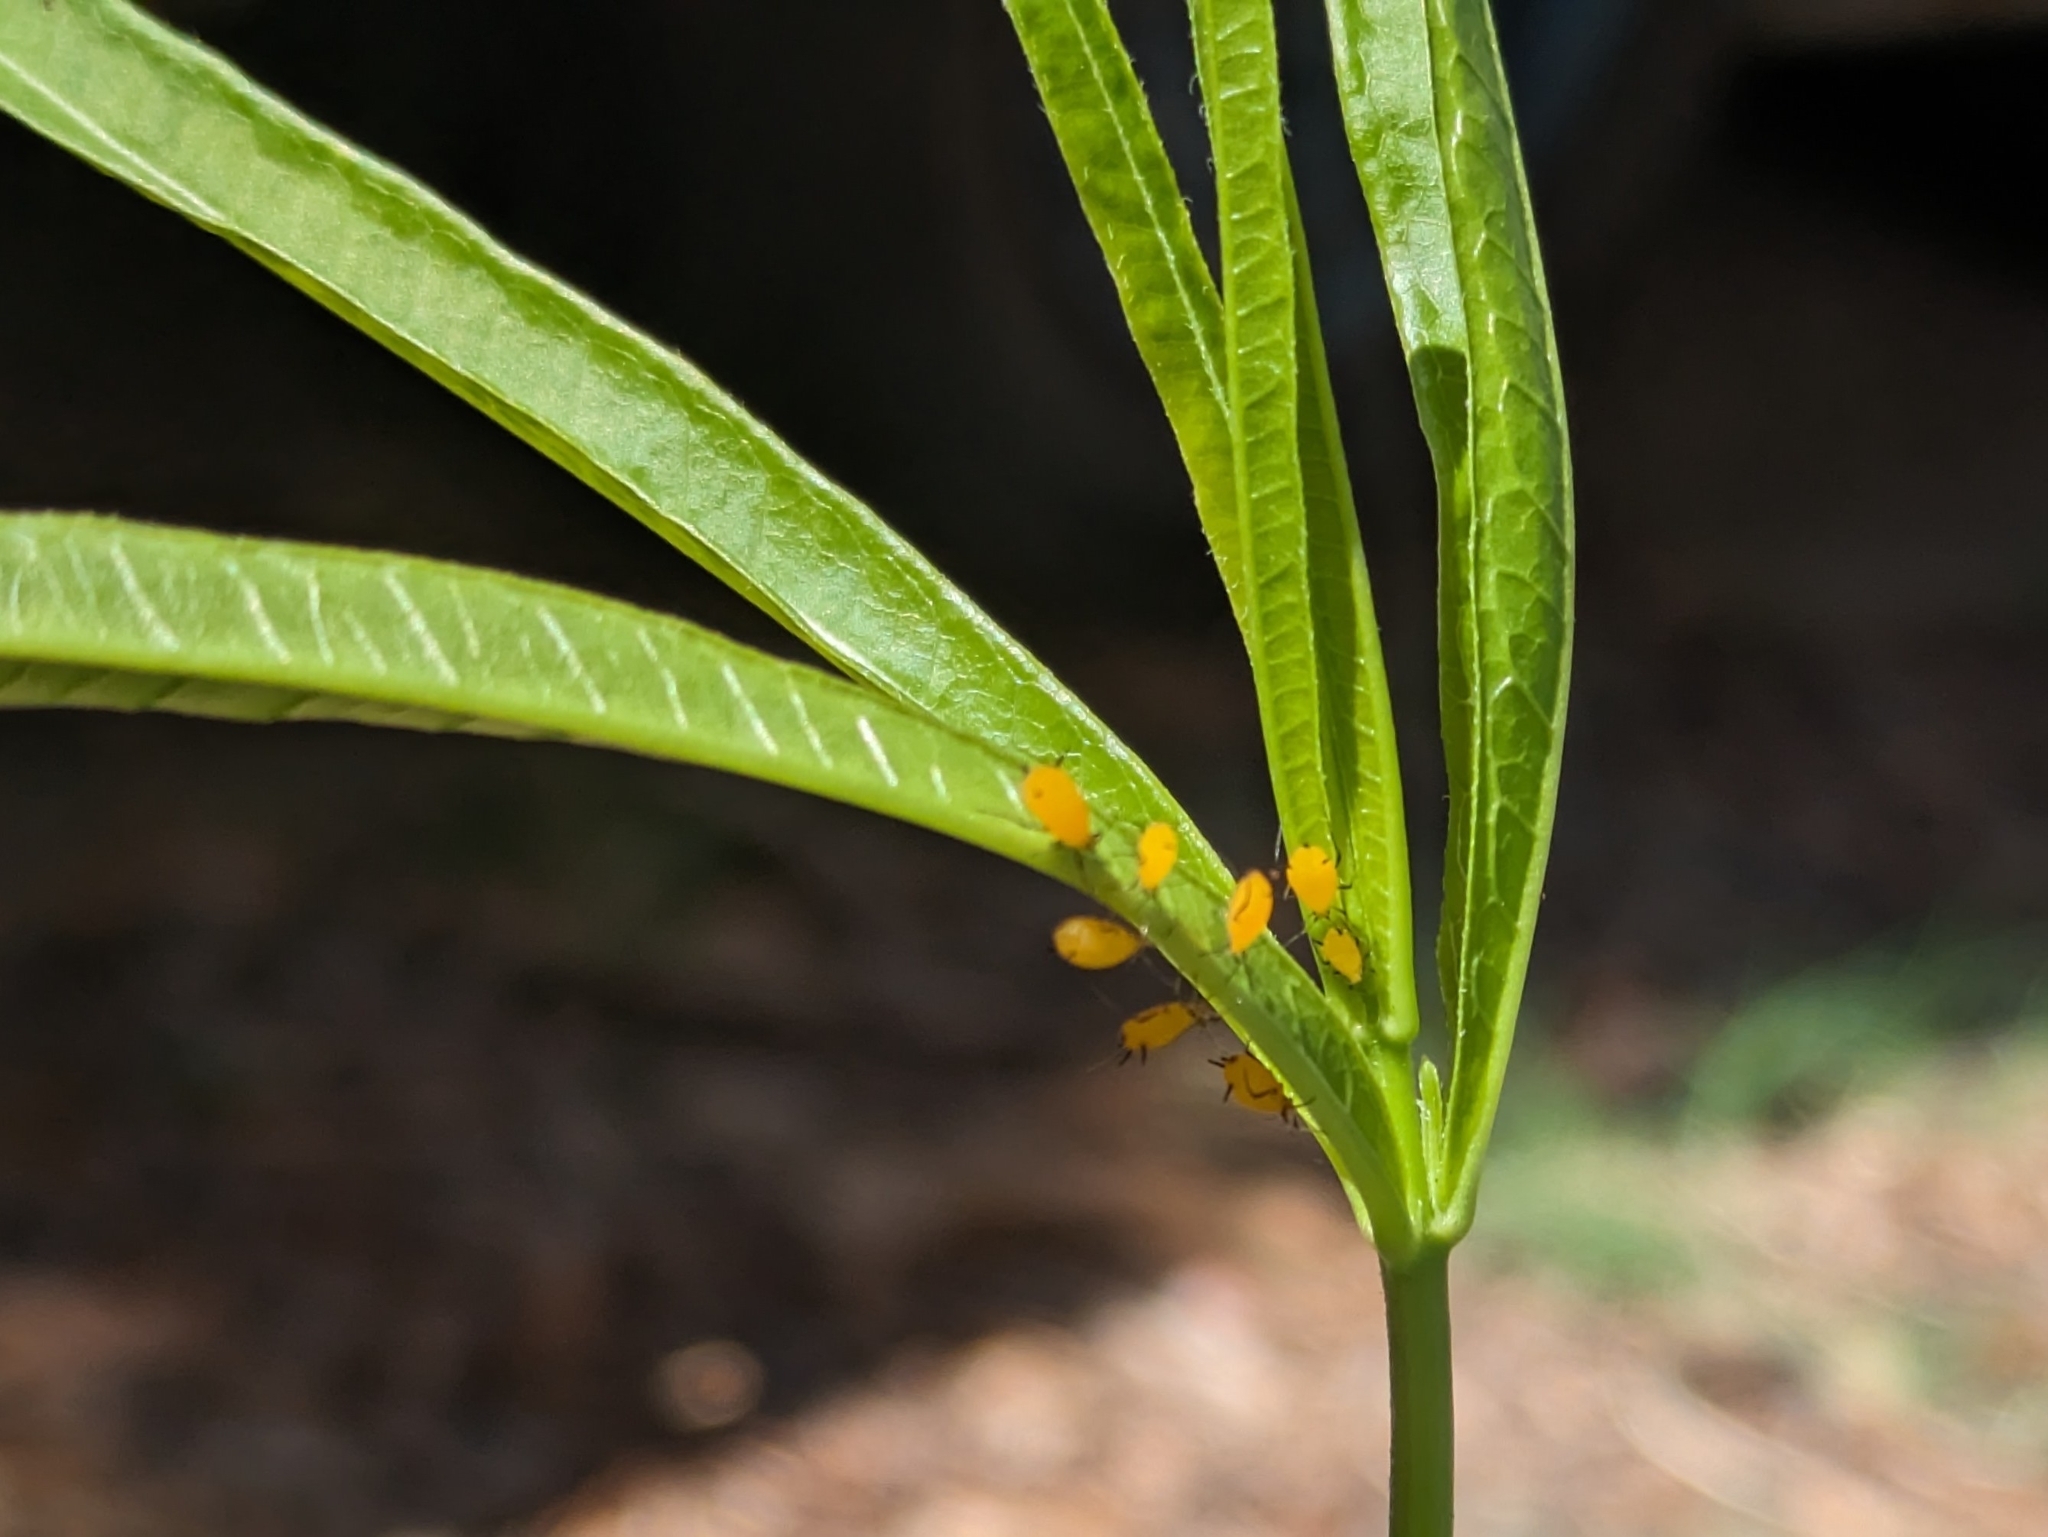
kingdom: Animalia
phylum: Arthropoda
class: Insecta
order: Hemiptera
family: Aphididae
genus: Aphis
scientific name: Aphis nerii
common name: Oleander aphid
